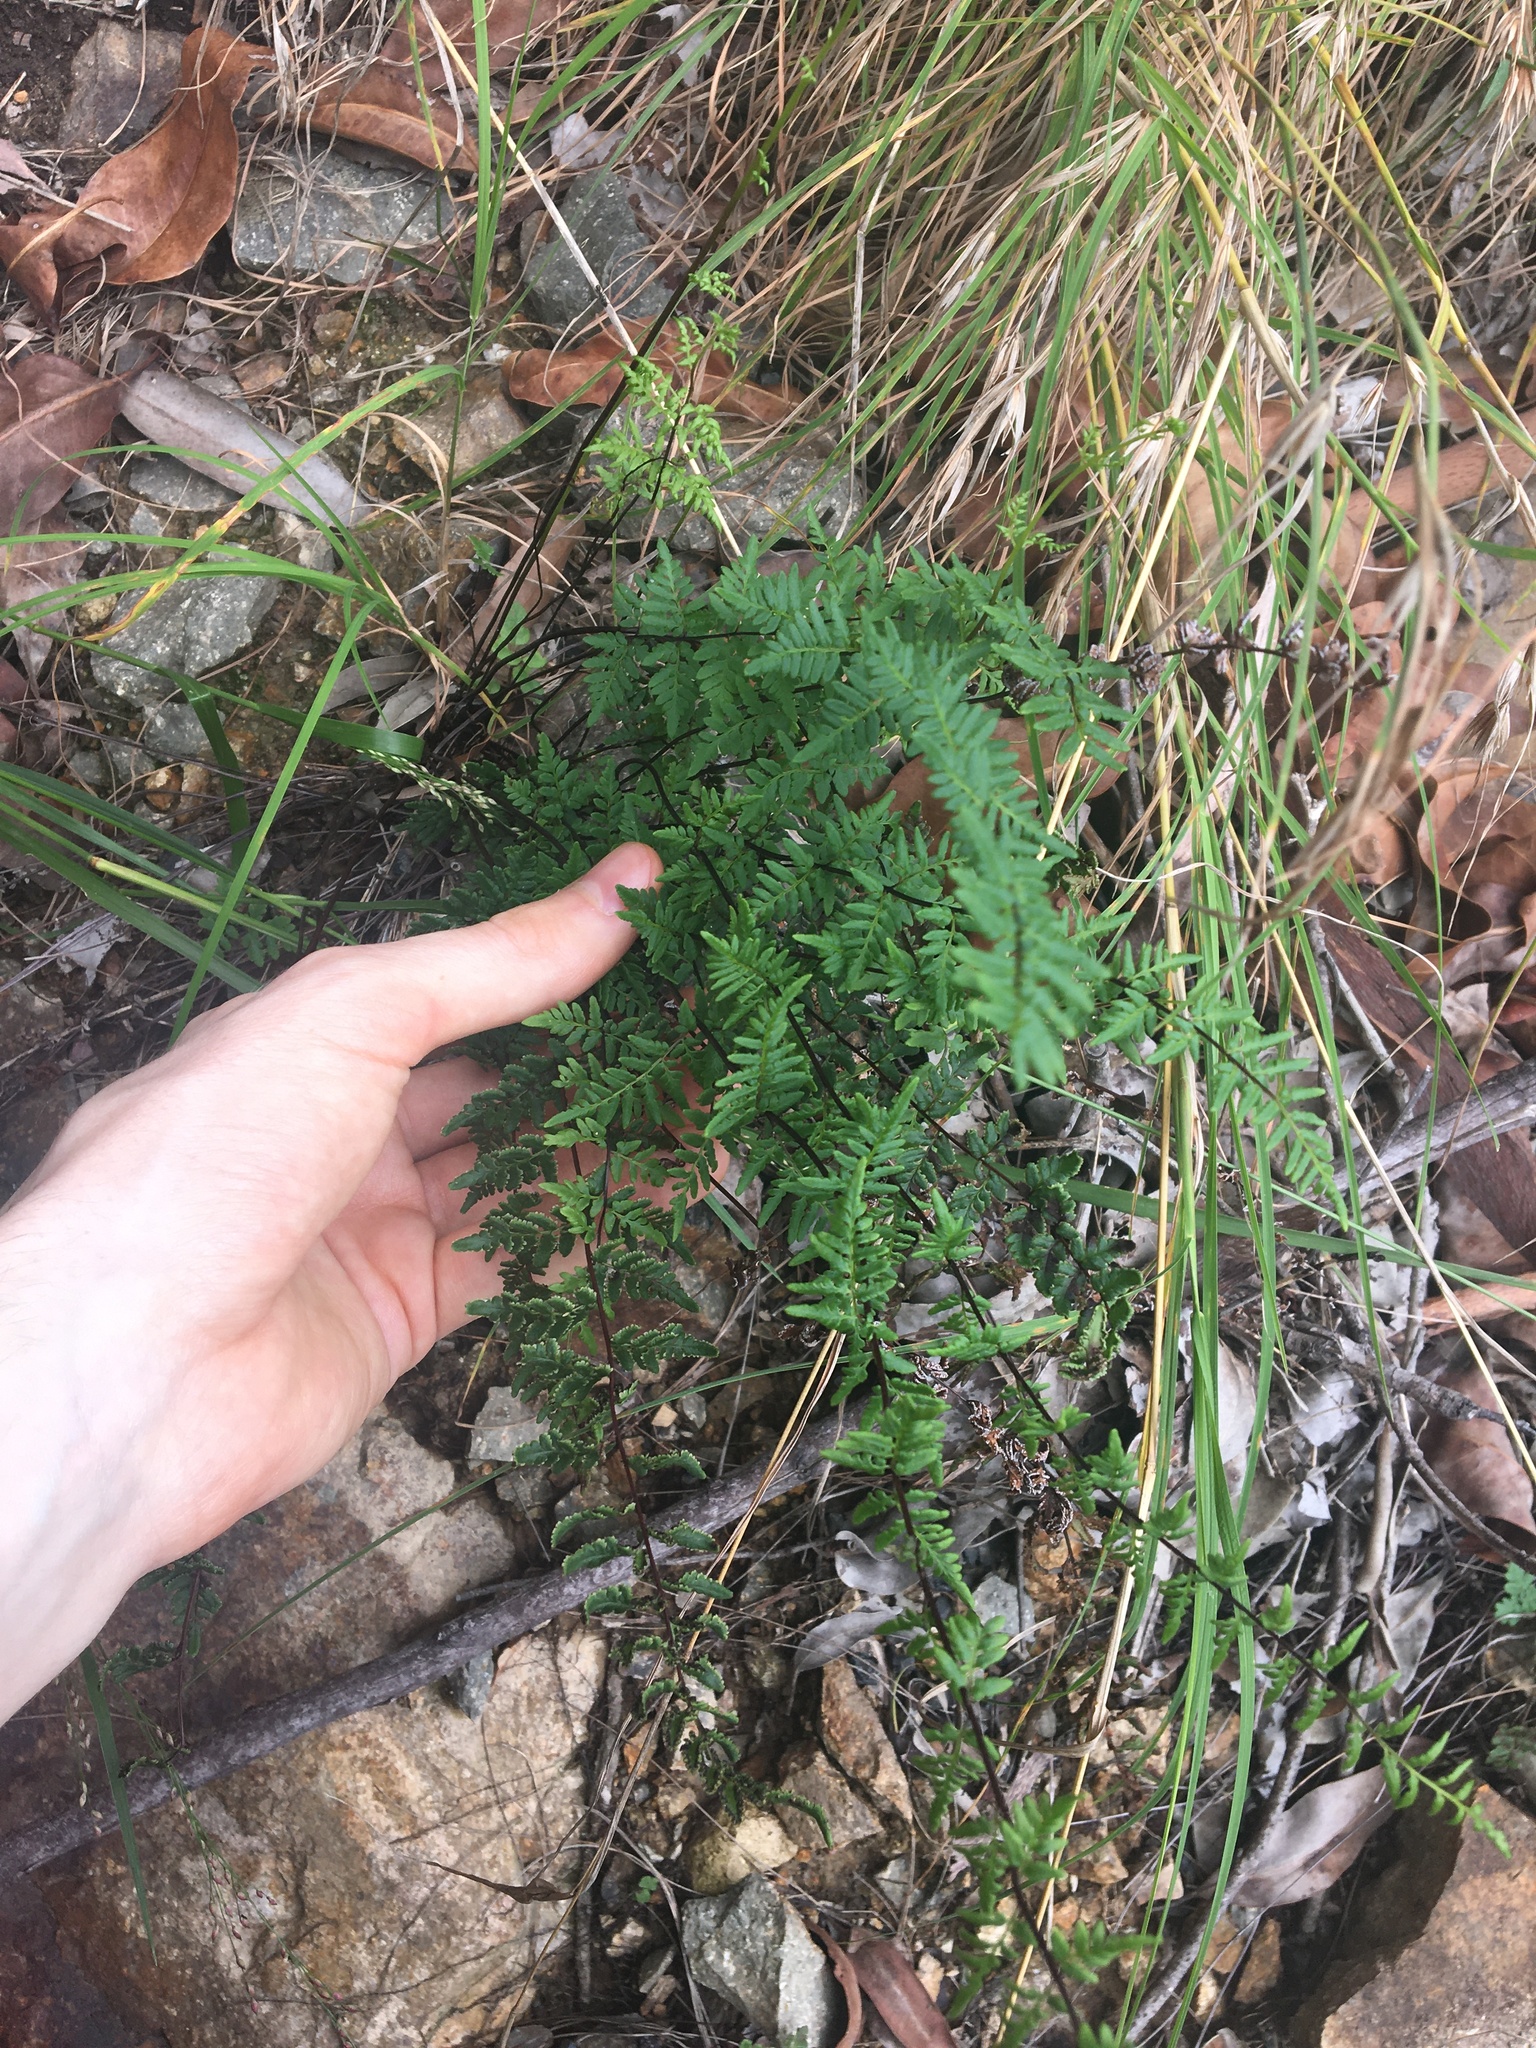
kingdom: Plantae
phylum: Tracheophyta
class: Polypodiopsida
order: Polypodiales
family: Pteridaceae
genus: Cheilanthes
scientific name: Cheilanthes sieberi
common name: Mulga fern
